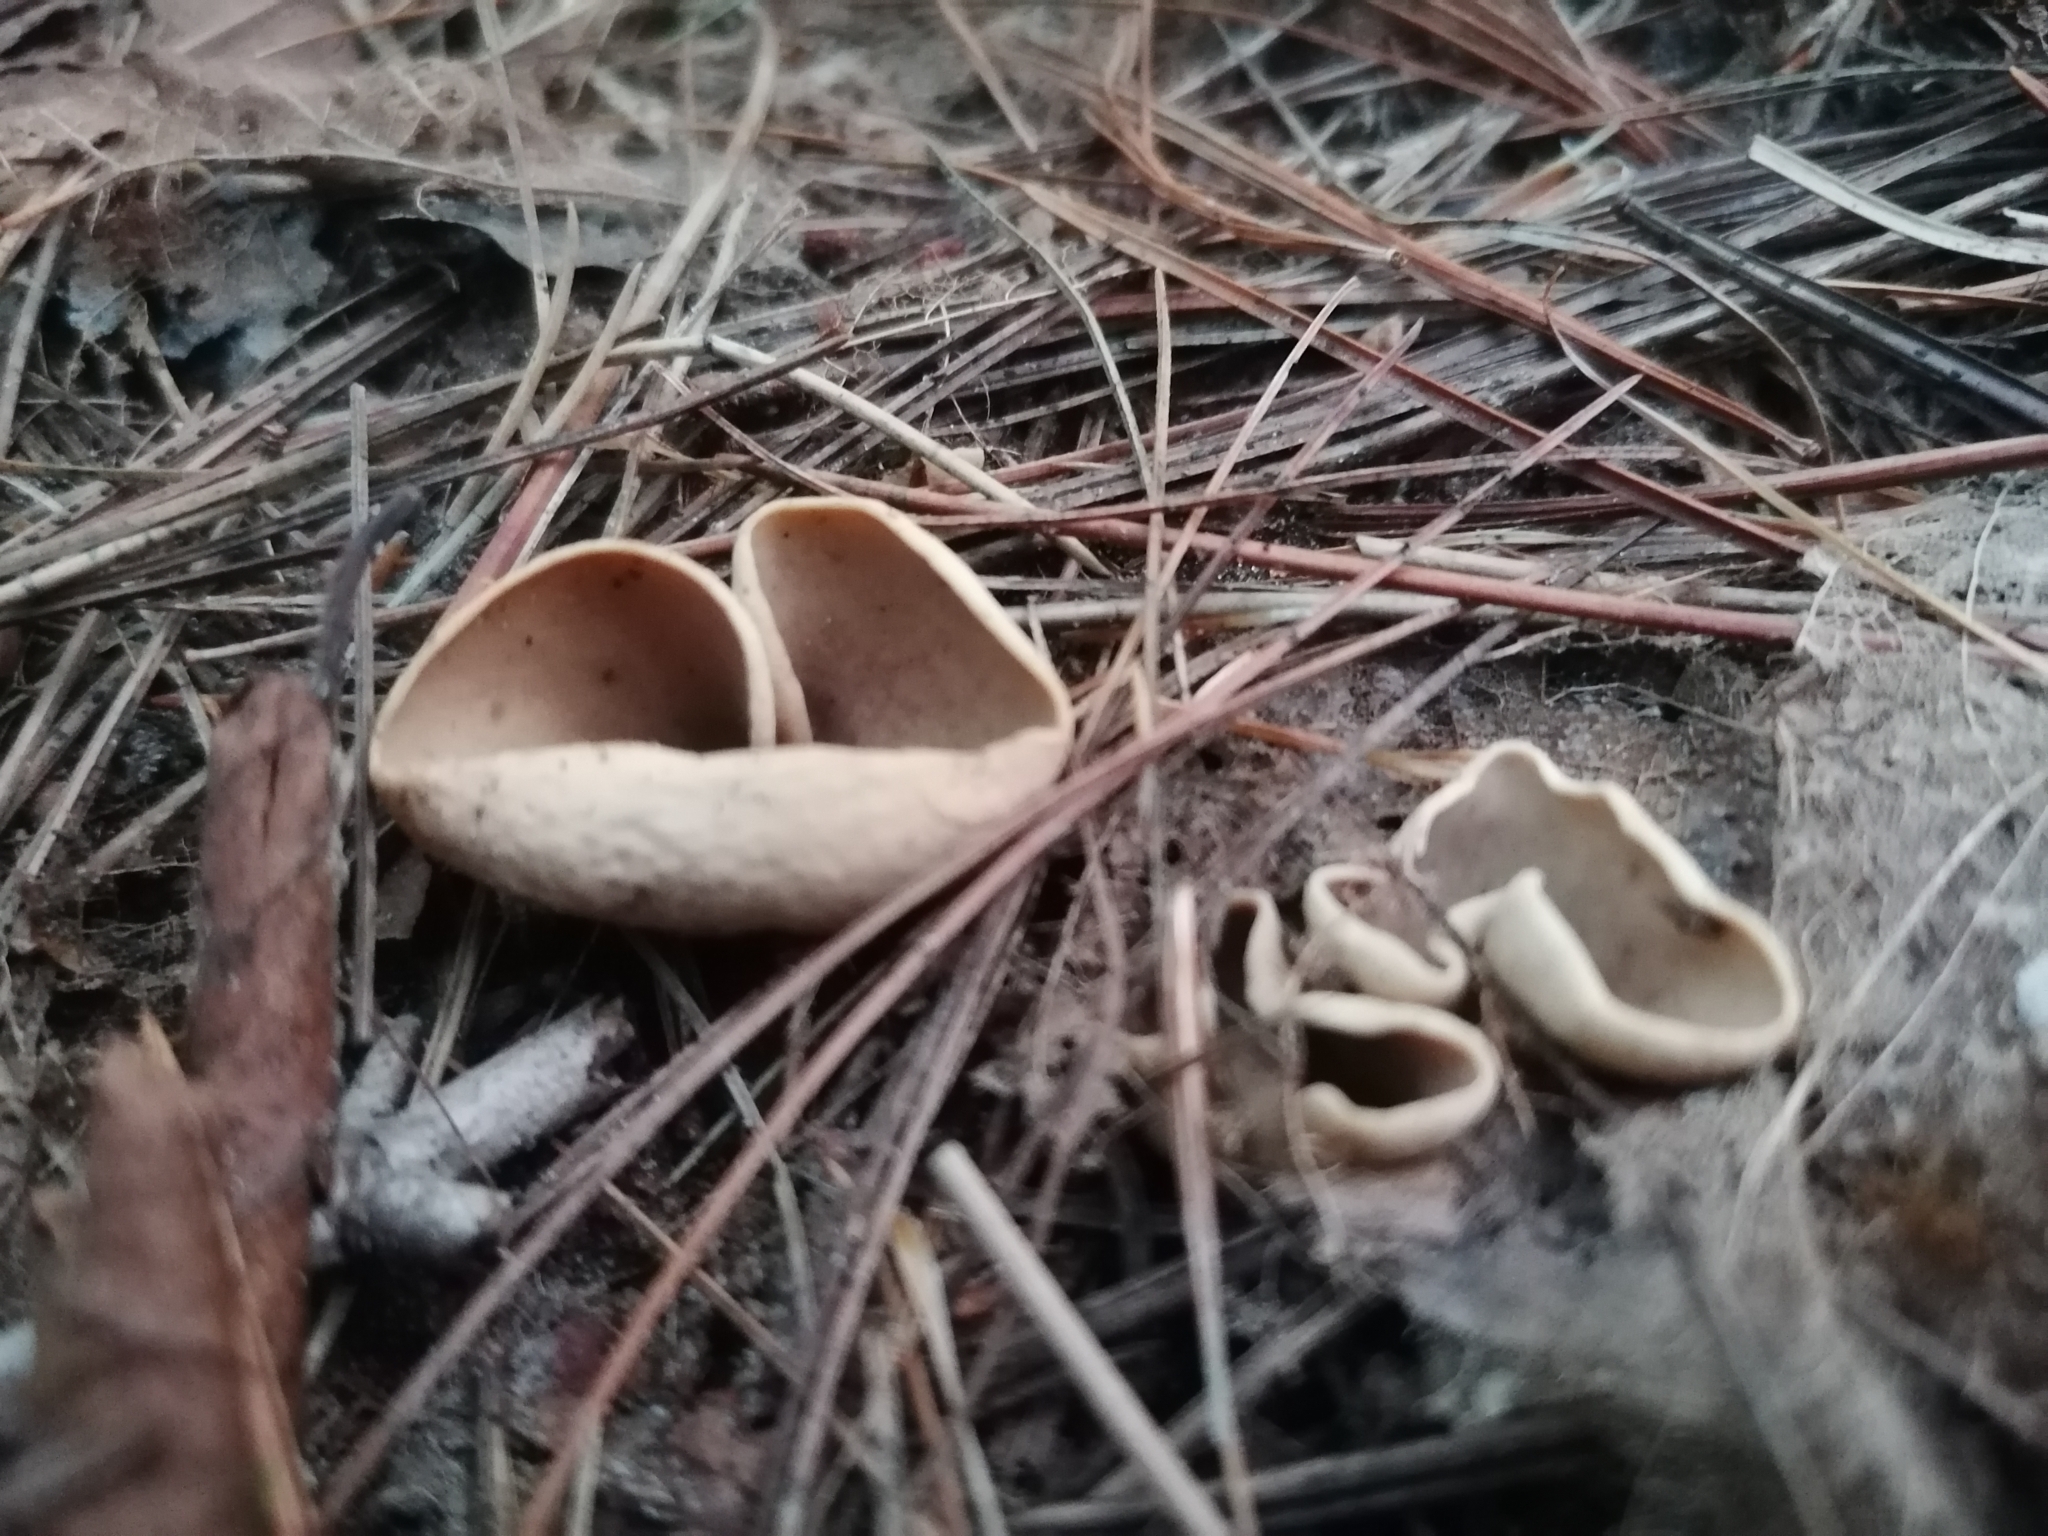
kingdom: Fungi
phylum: Ascomycota
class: Pezizomycetes
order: Pezizales
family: Otideaceae
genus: Otidea
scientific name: Otidea onotica
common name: Hare's ear
